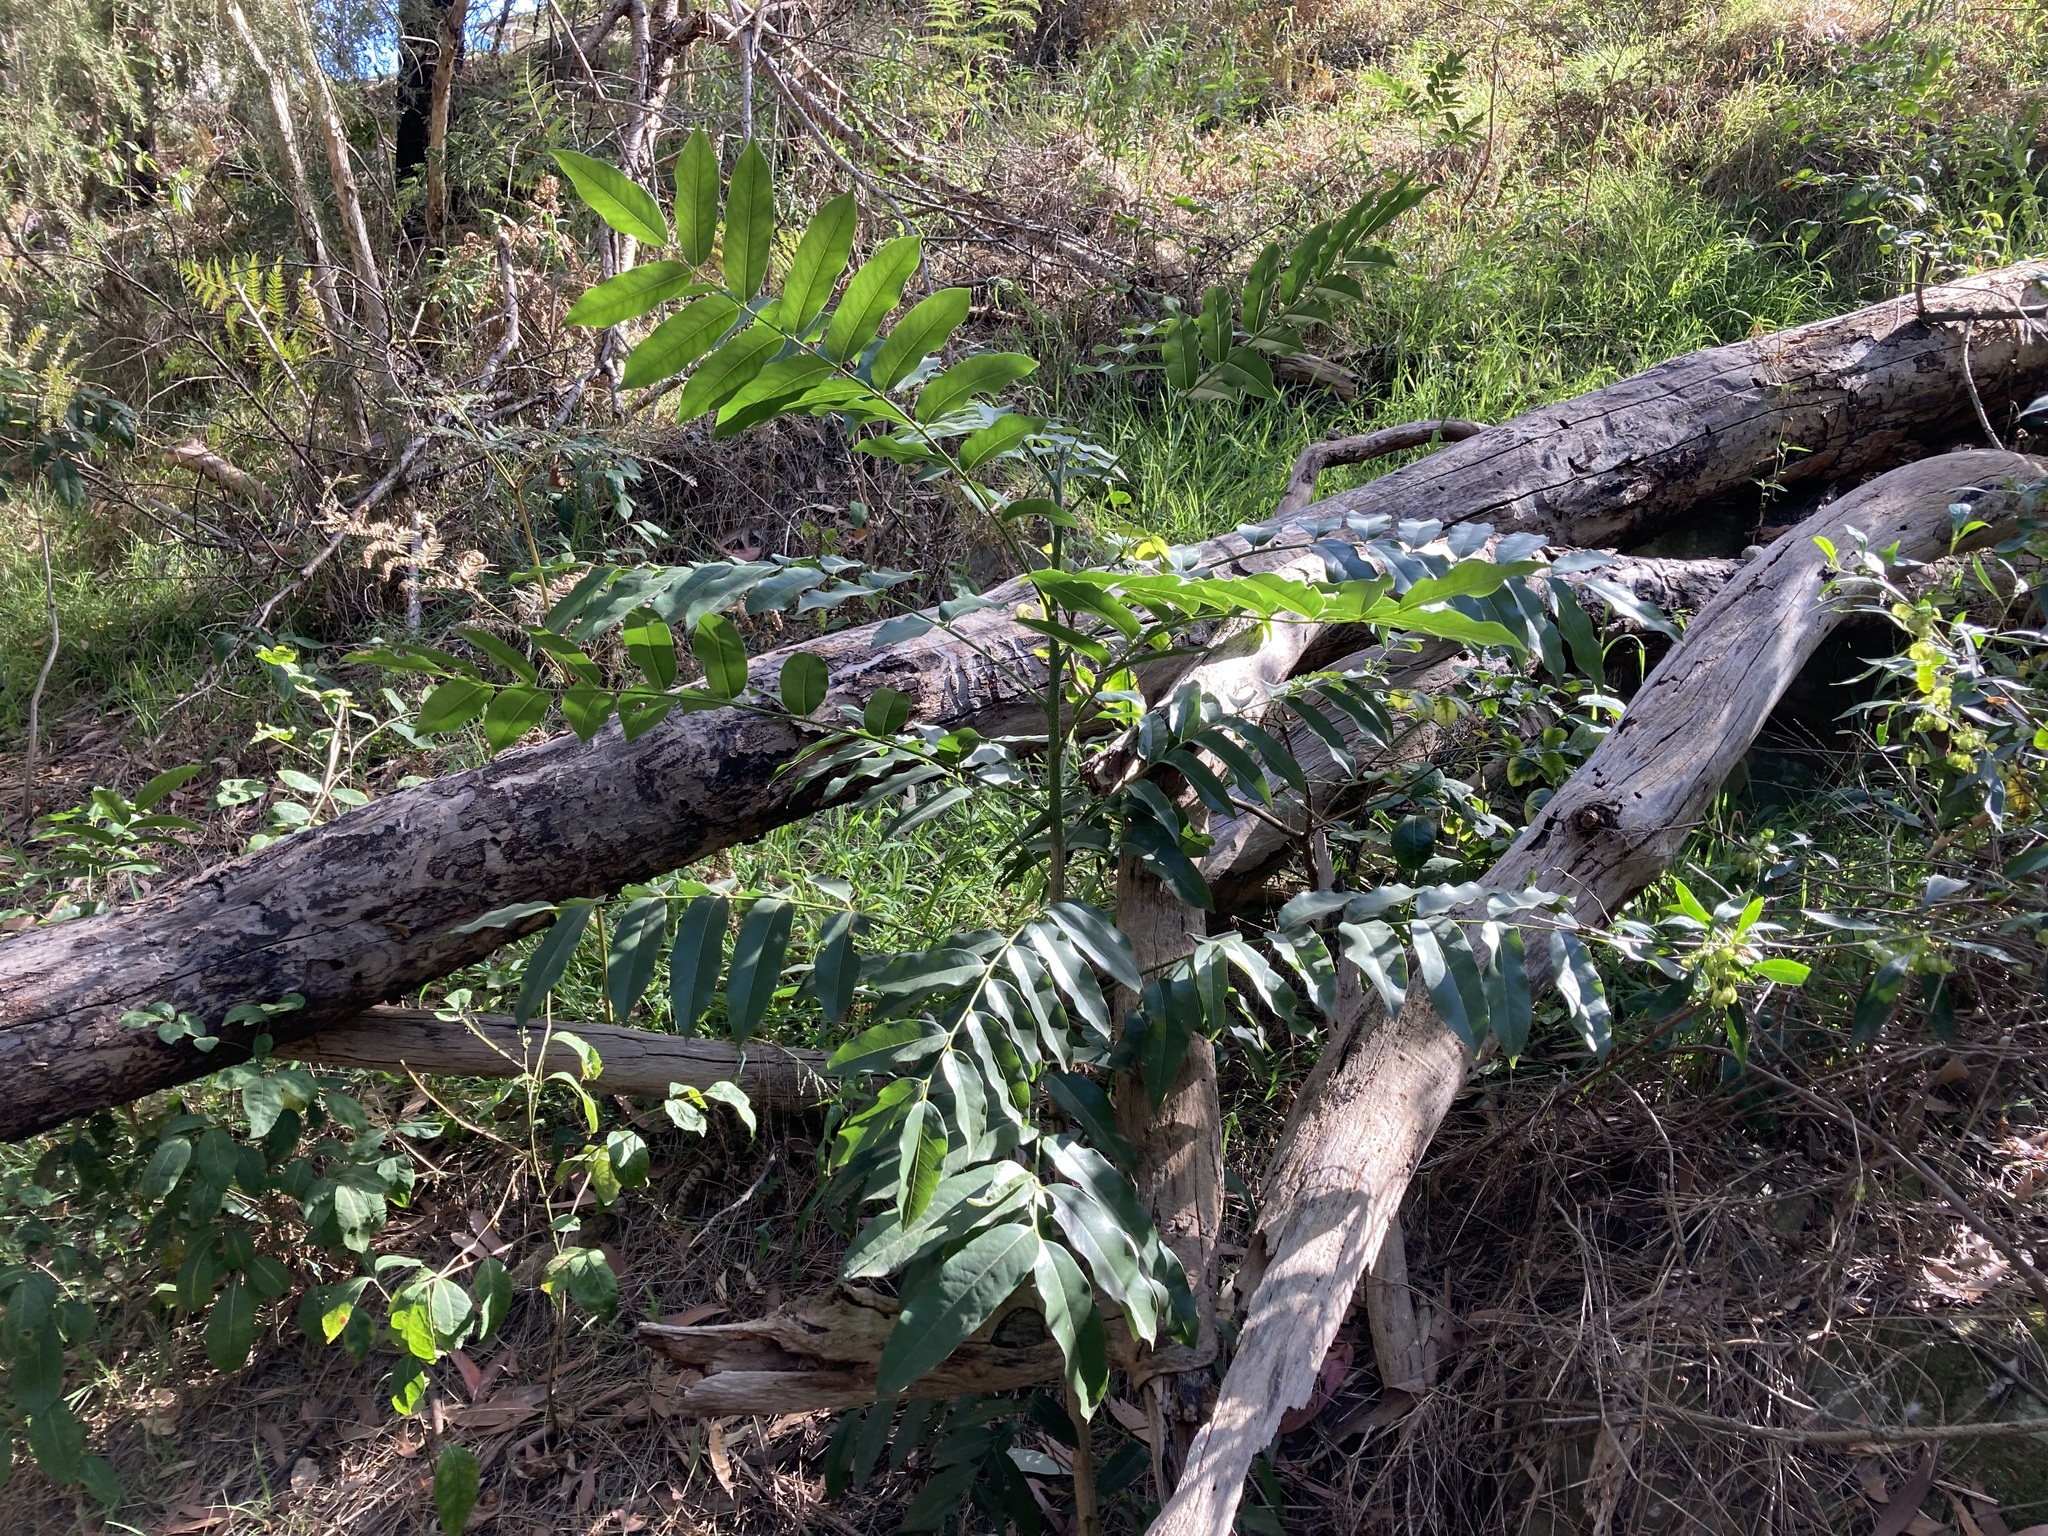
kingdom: Plantae
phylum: Tracheophyta
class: Magnoliopsida
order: Fabales
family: Fabaceae
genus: Castanospermum
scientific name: Castanospermum australe
